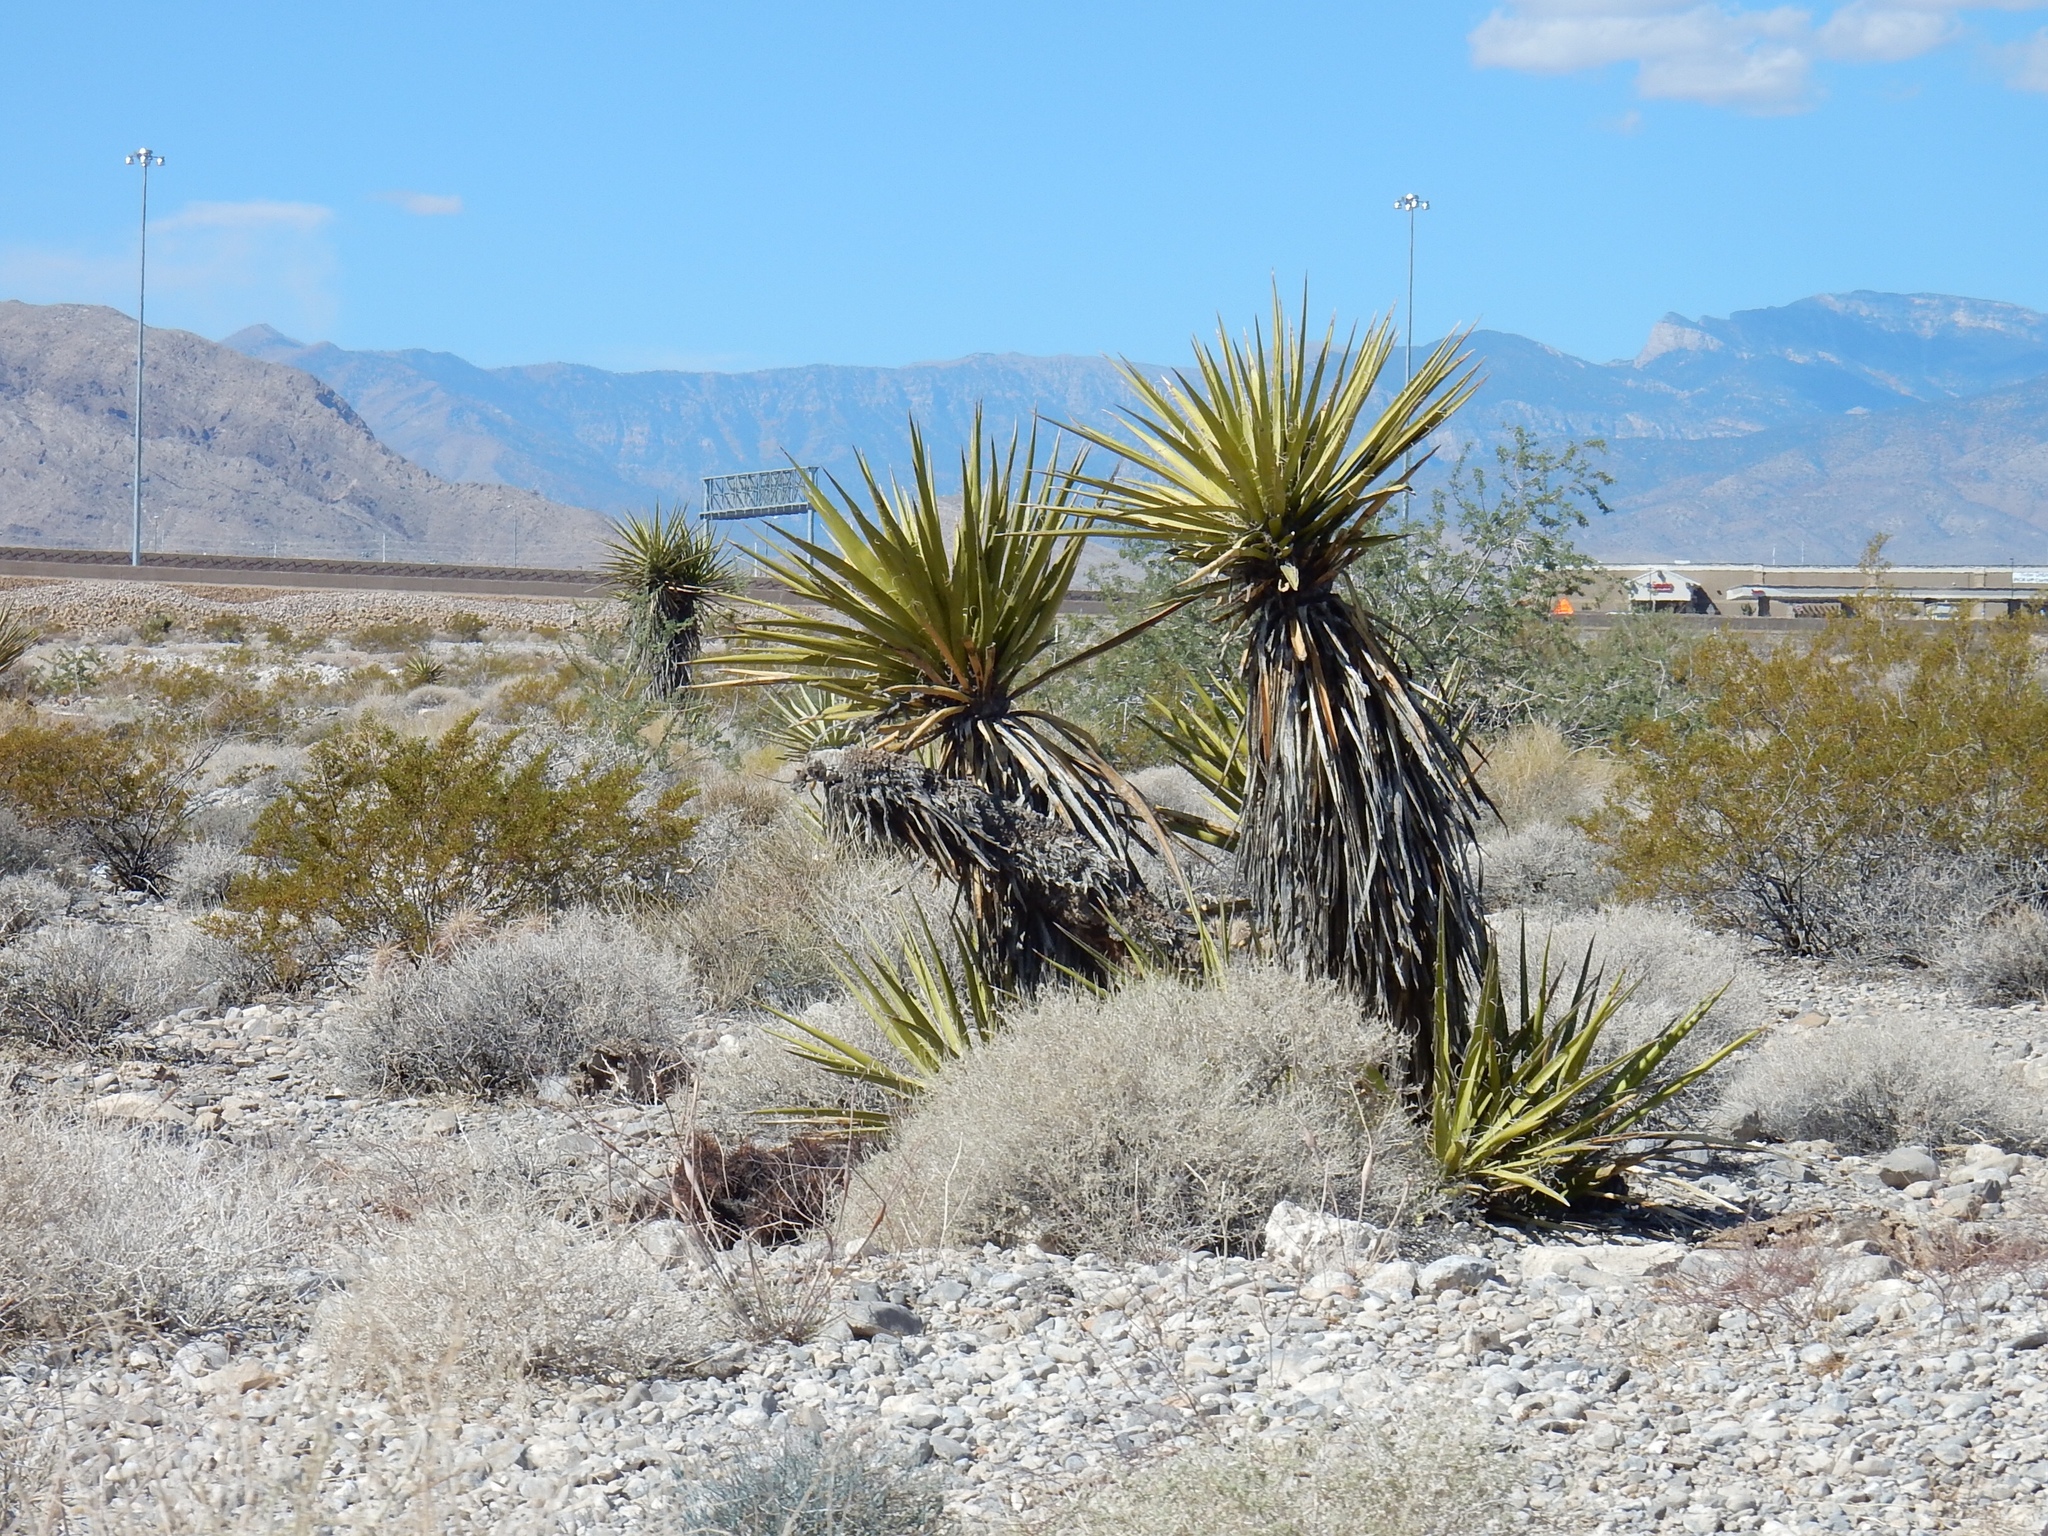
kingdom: Plantae
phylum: Tracheophyta
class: Liliopsida
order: Asparagales
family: Asparagaceae
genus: Yucca
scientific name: Yucca schidigera
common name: Mojave yucca
